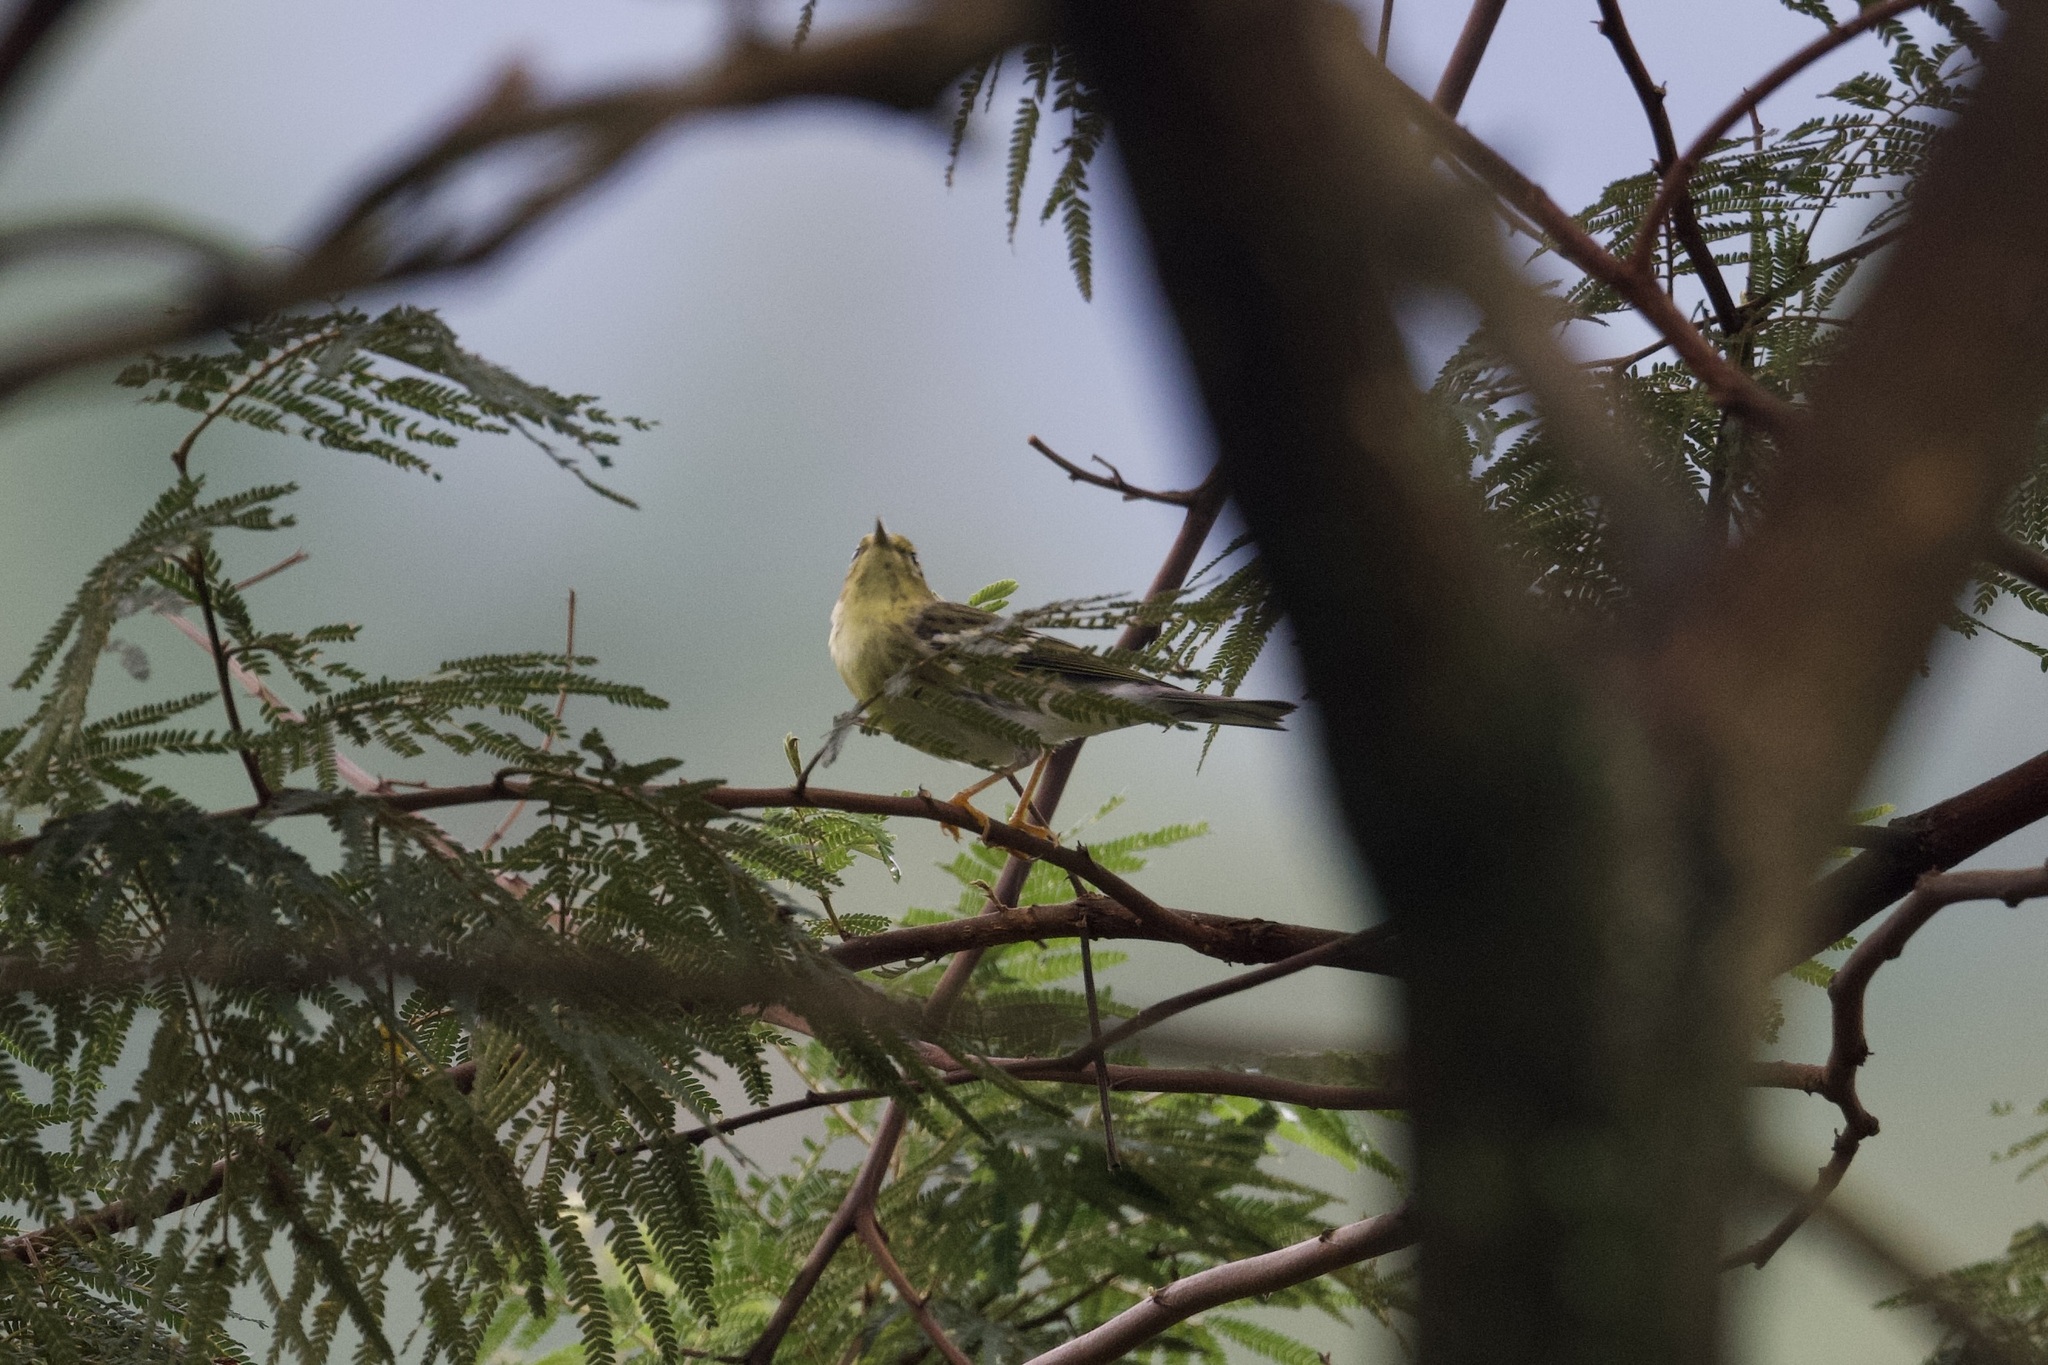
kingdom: Animalia
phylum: Chordata
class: Aves
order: Passeriformes
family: Parulidae
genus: Setophaga
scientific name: Setophaga striata
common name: Blackpoll warbler
